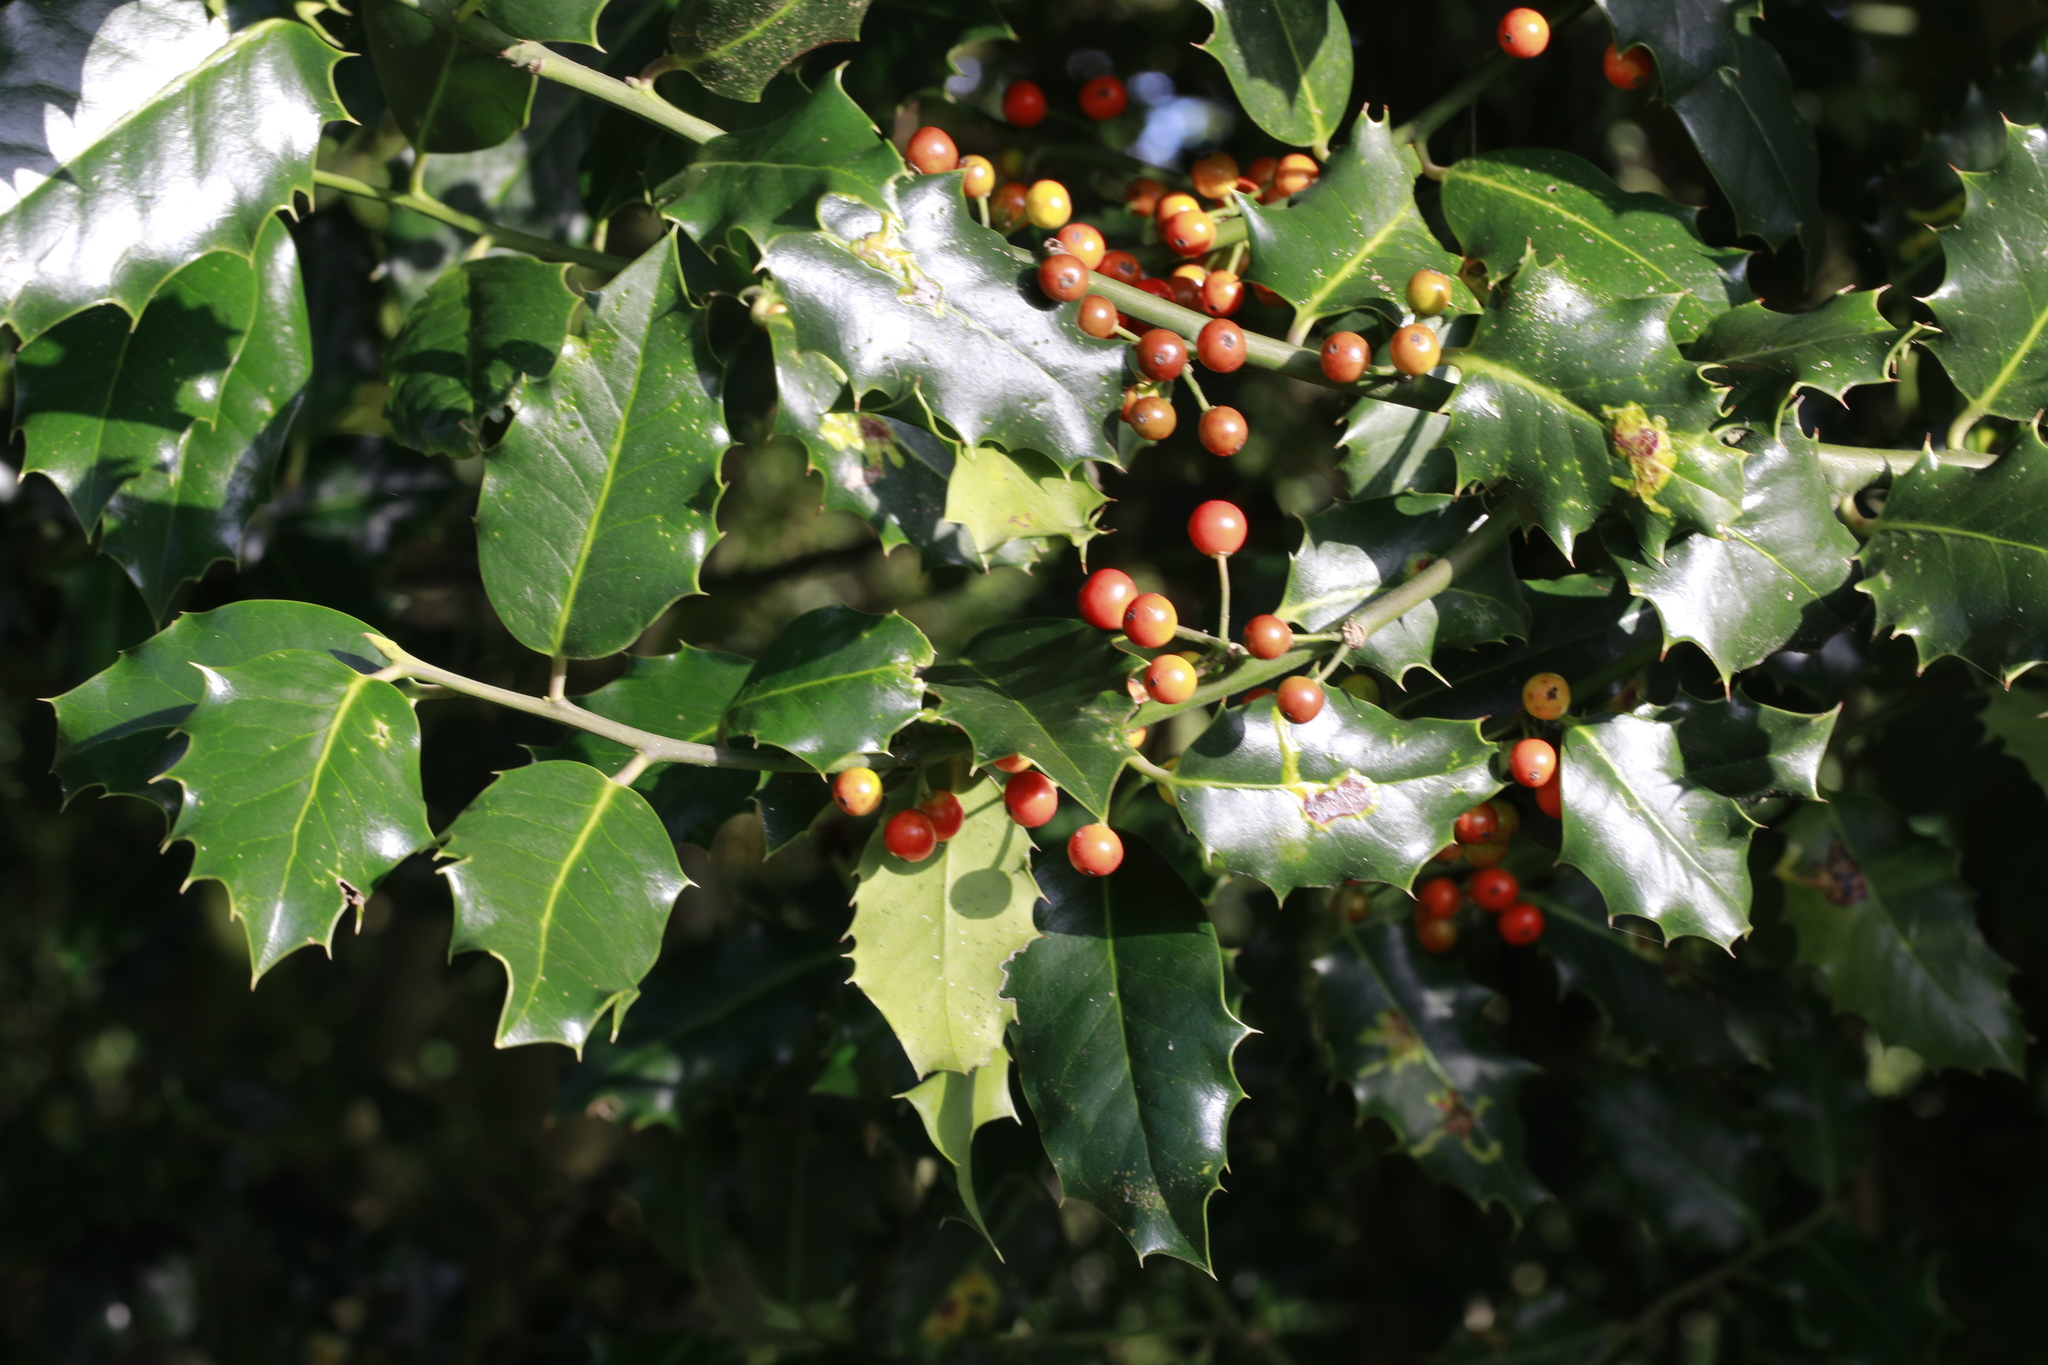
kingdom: Plantae
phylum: Tracheophyta
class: Magnoliopsida
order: Aquifoliales
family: Aquifoliaceae
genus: Ilex
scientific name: Ilex aquifolium
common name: English holly
